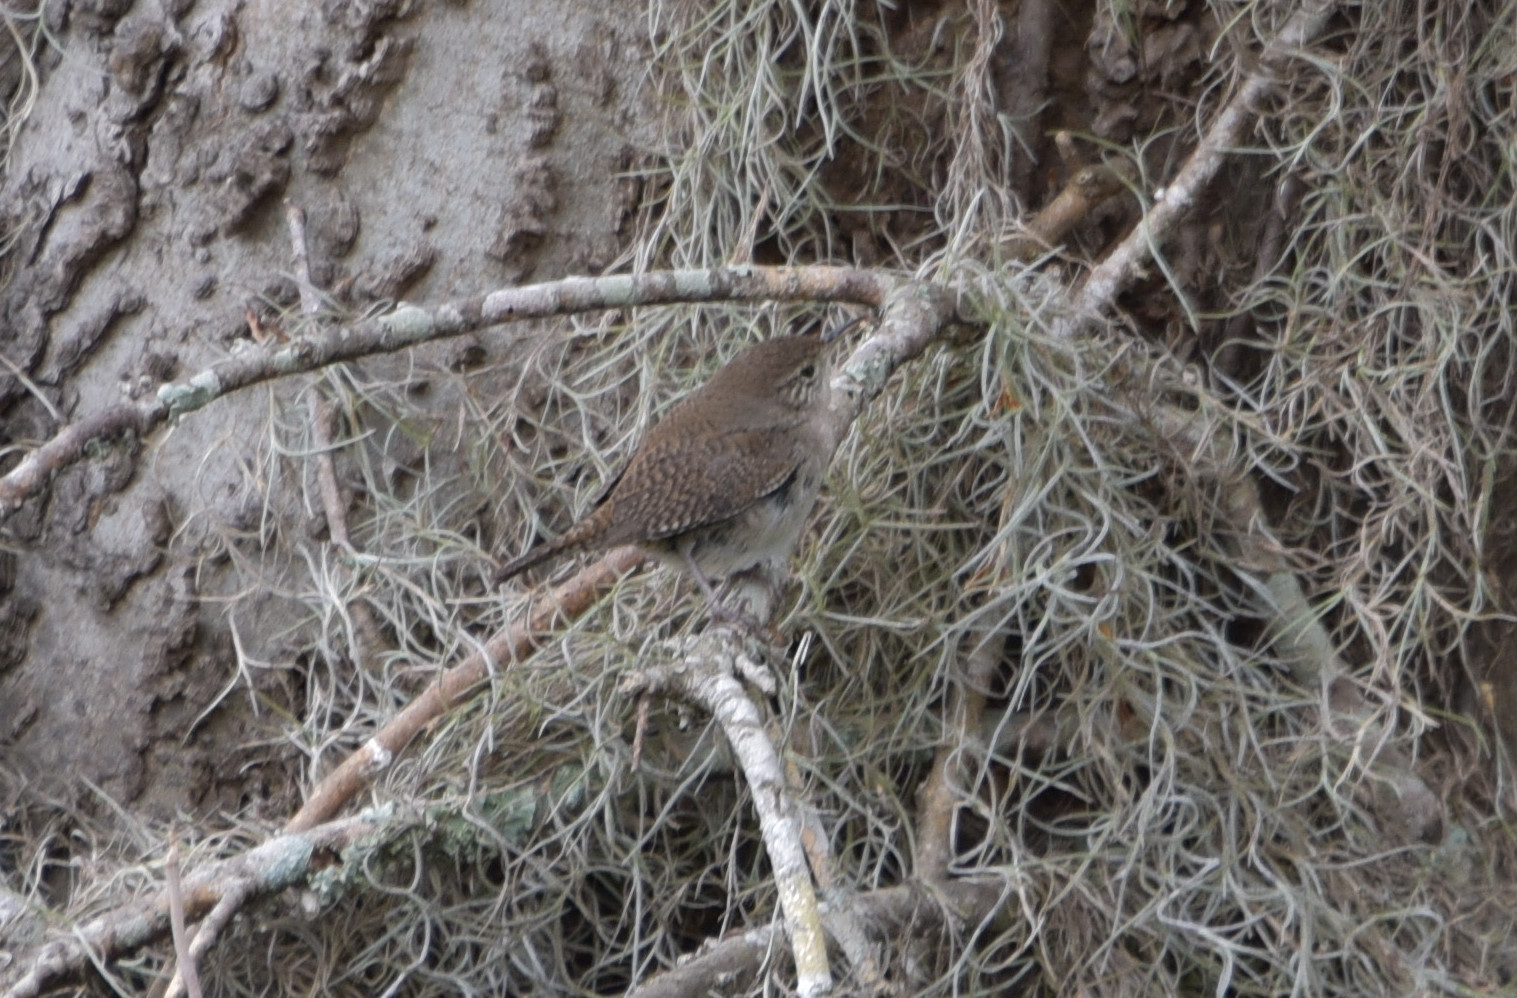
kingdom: Animalia
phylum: Chordata
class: Aves
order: Passeriformes
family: Troglodytidae
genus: Troglodytes
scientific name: Troglodytes aedon
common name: House wren
